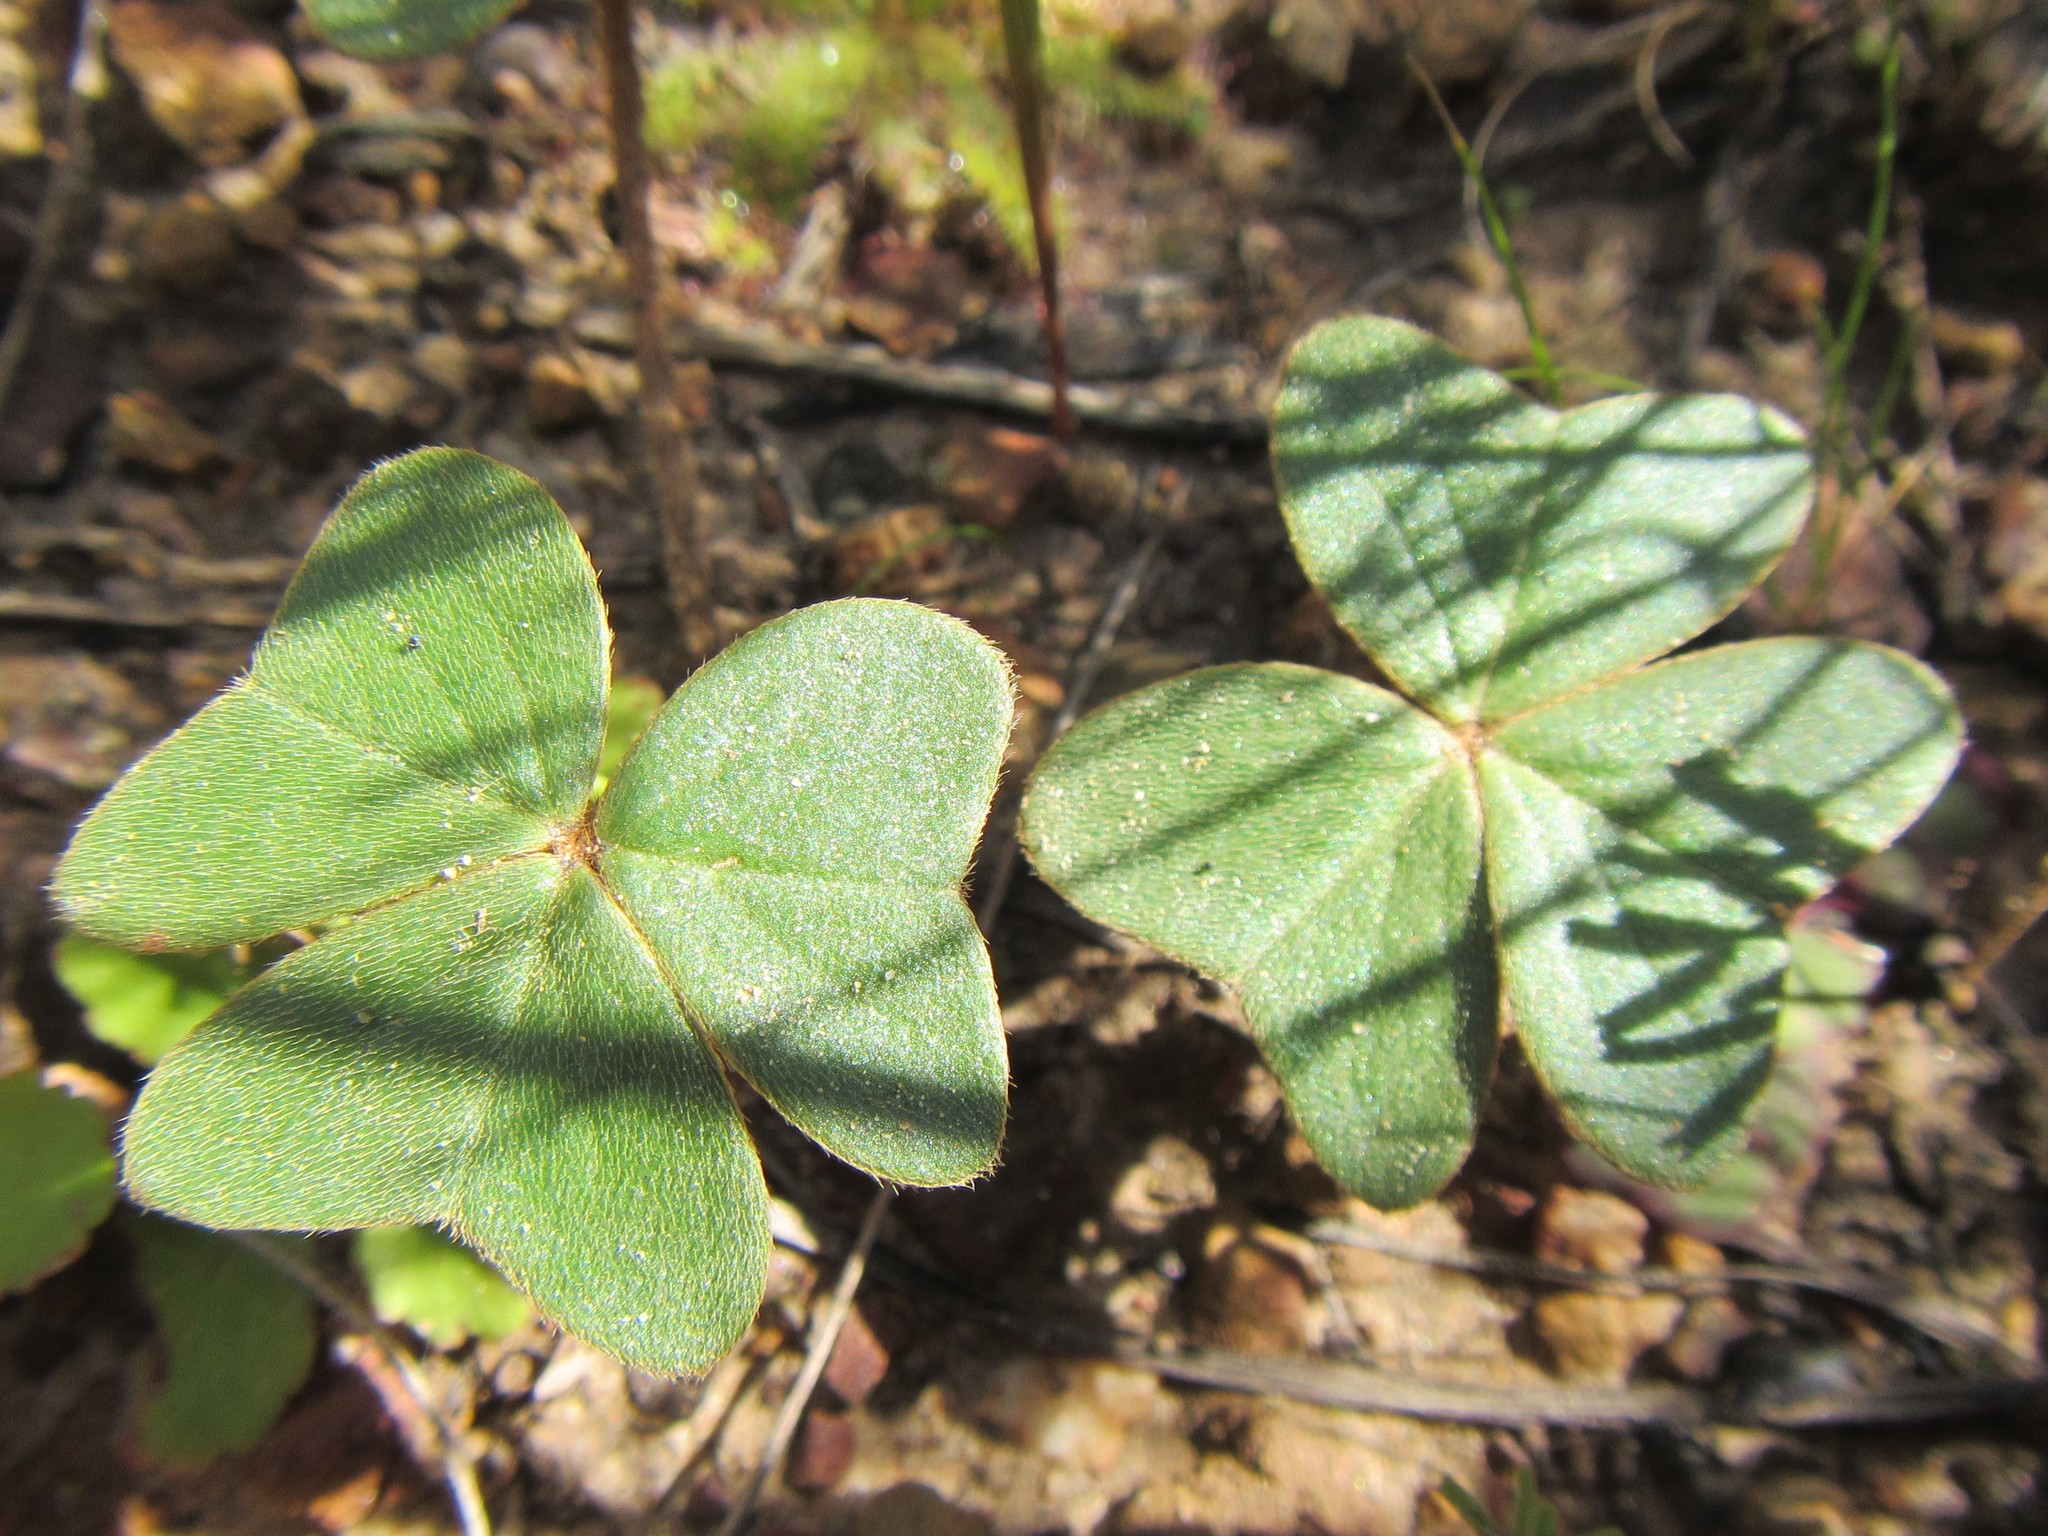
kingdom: Plantae
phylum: Tracheophyta
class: Magnoliopsida
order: Oxalidales
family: Oxalidaceae
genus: Oxalis
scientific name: Oxalis truncatula
